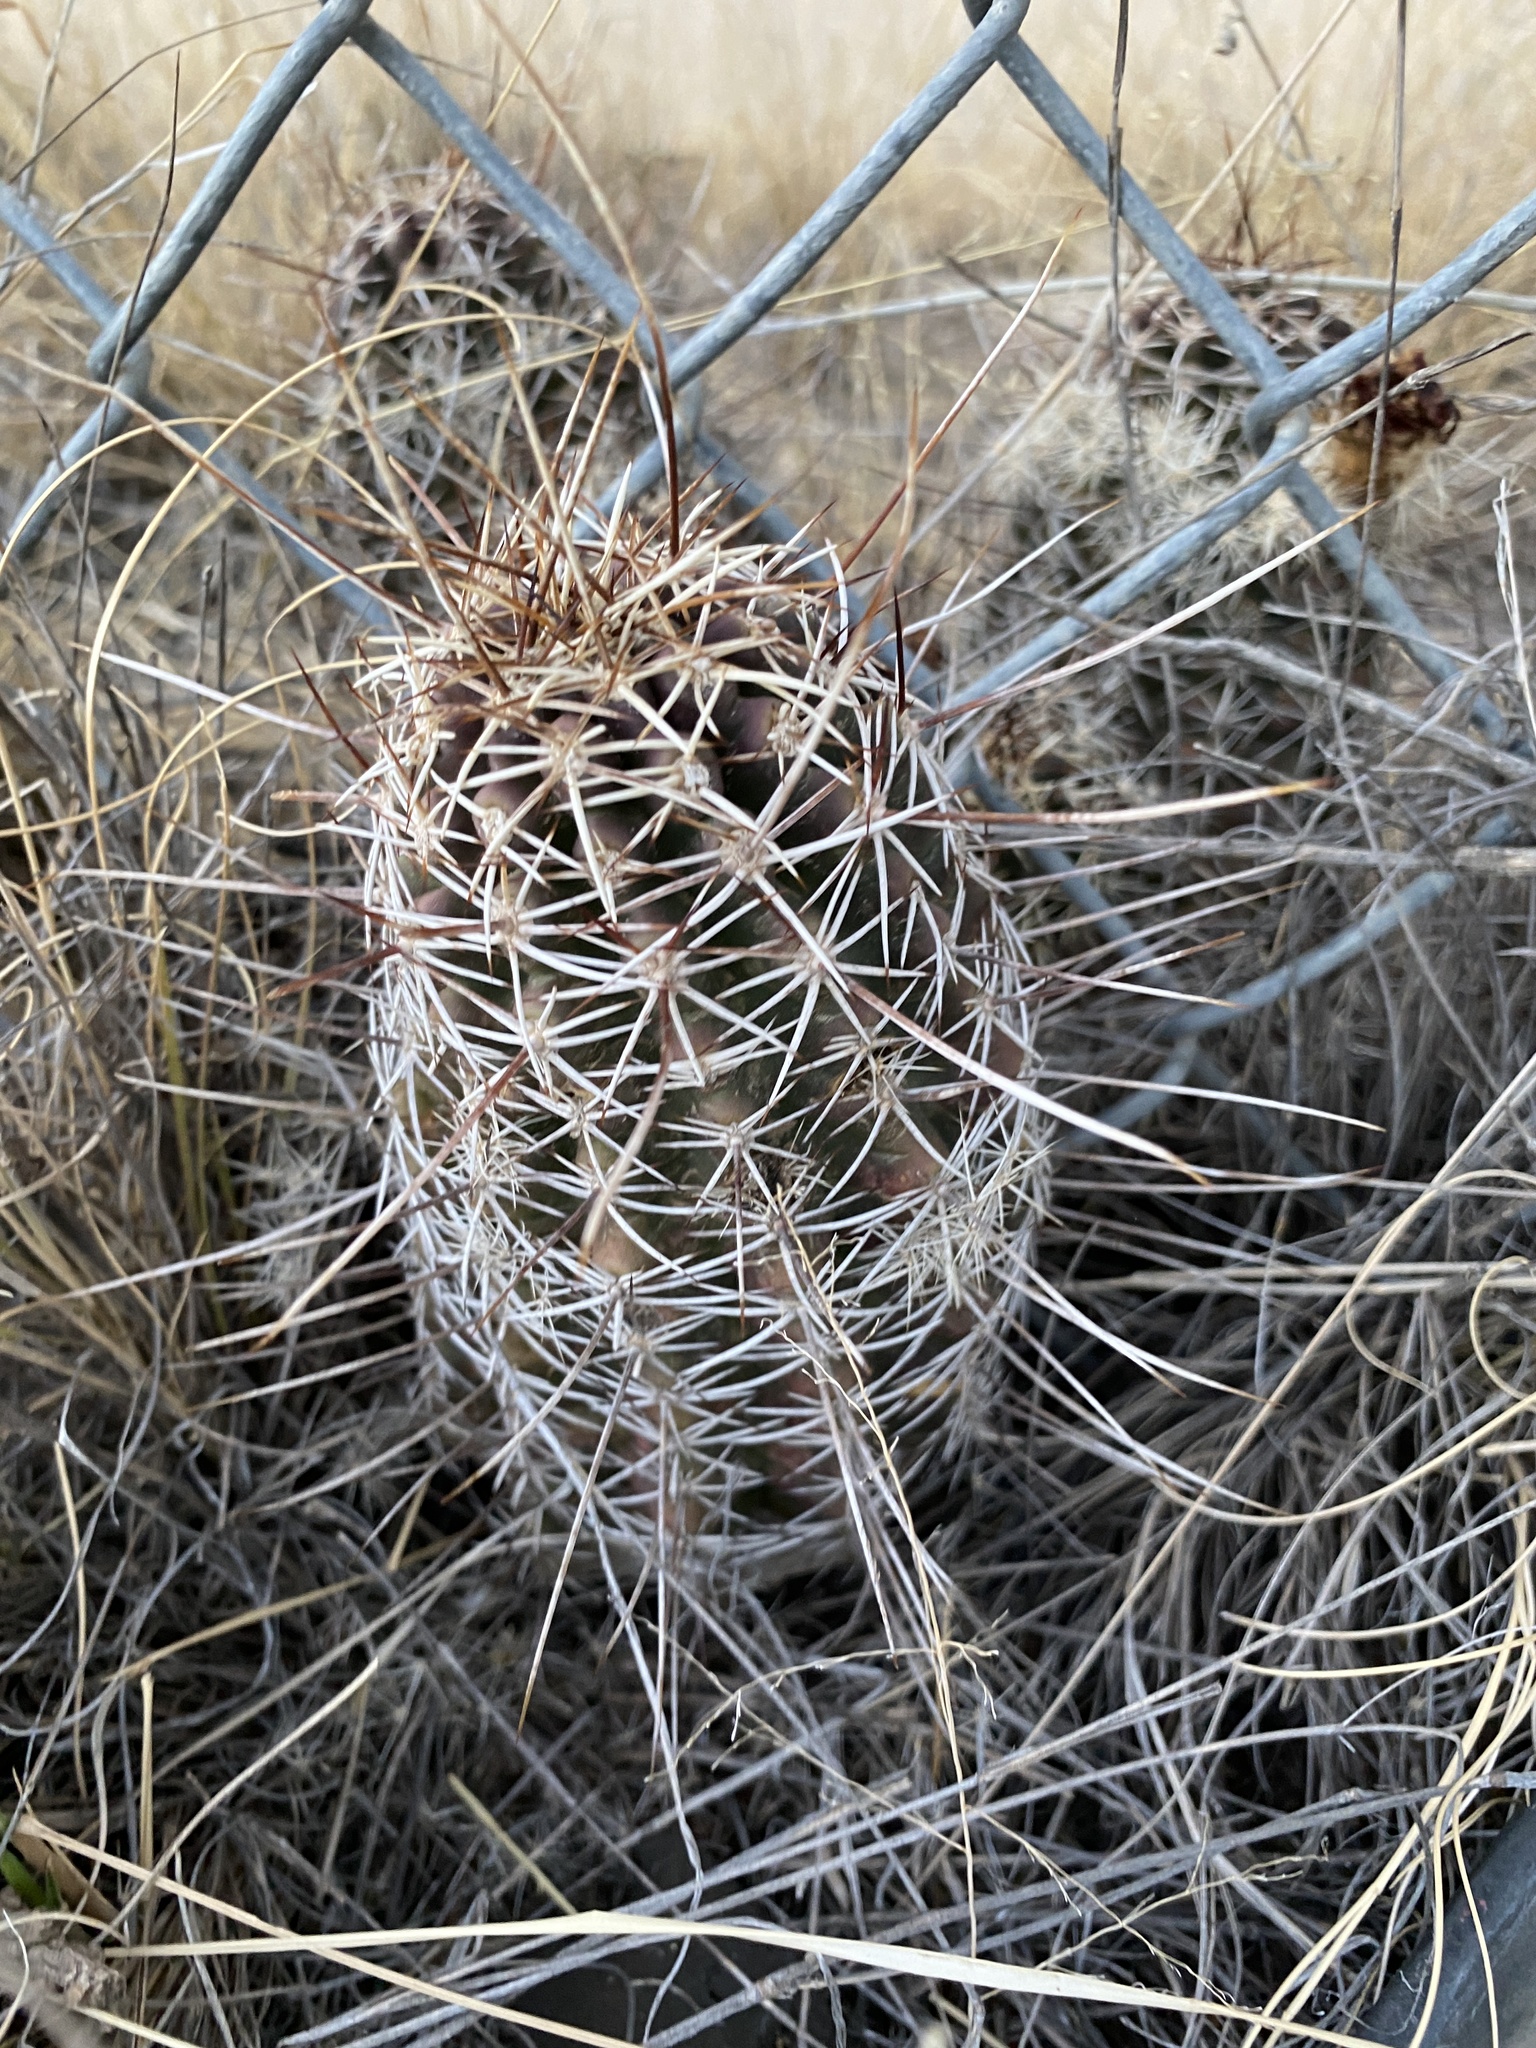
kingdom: Plantae
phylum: Tracheophyta
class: Magnoliopsida
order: Caryophyllales
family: Cactaceae
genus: Echinocereus
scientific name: Echinocereus fendleri
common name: Fendler's hedgehog cactus
